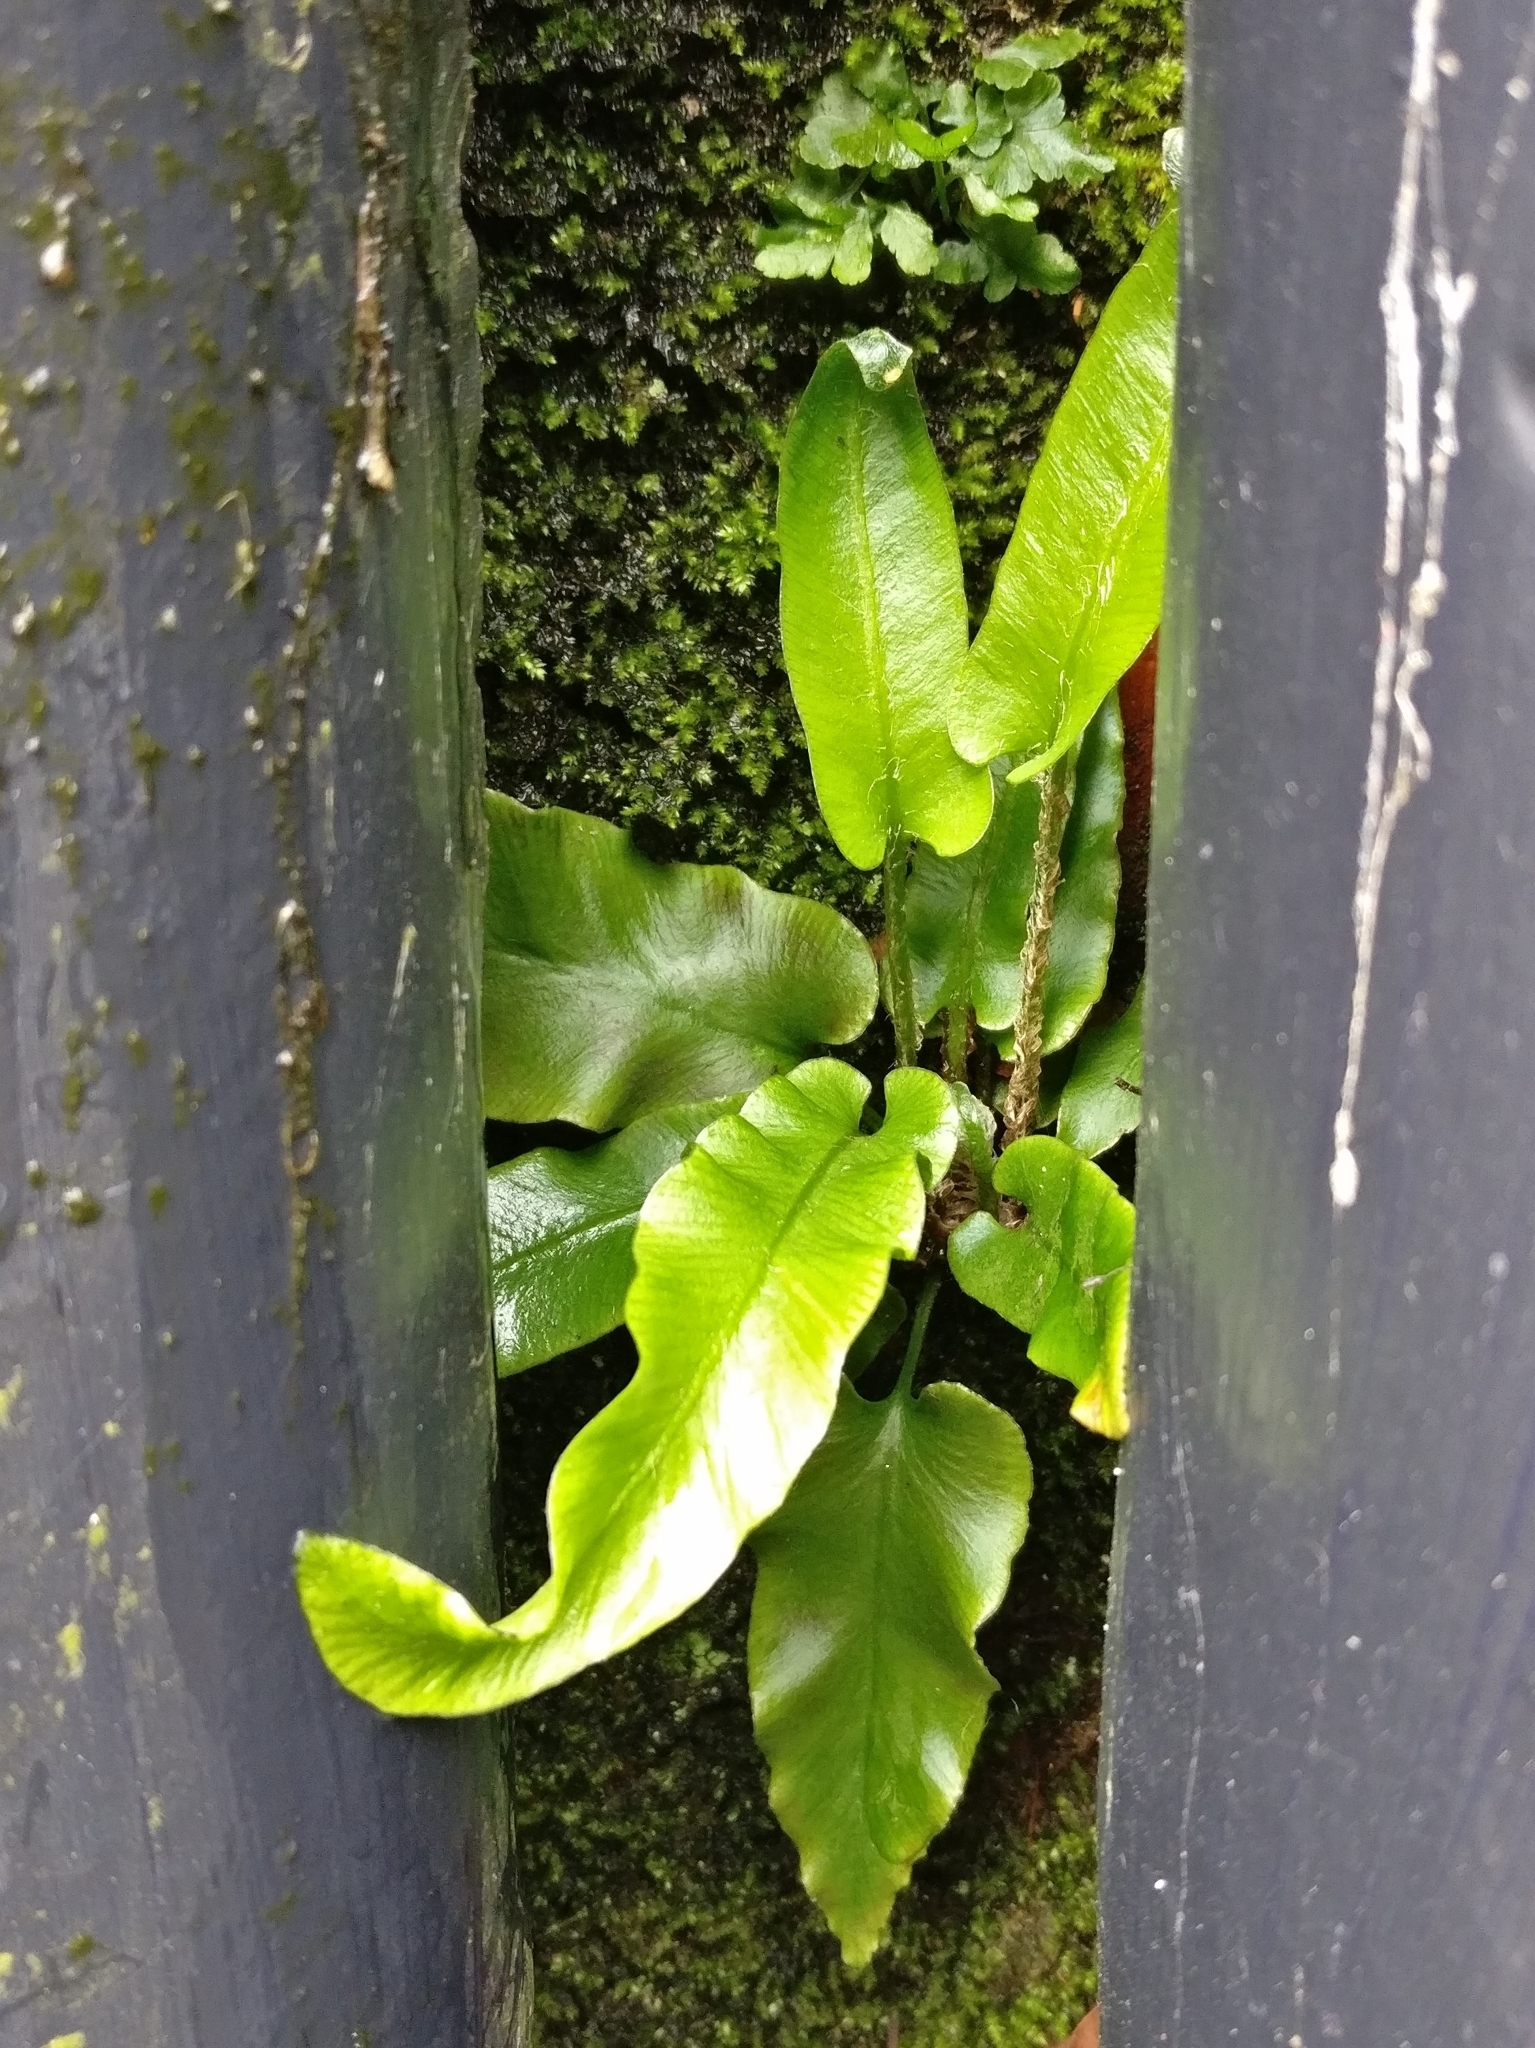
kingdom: Plantae
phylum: Tracheophyta
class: Polypodiopsida
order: Polypodiales
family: Aspleniaceae
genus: Asplenium
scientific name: Asplenium scolopendrium
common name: Hart's-tongue fern
